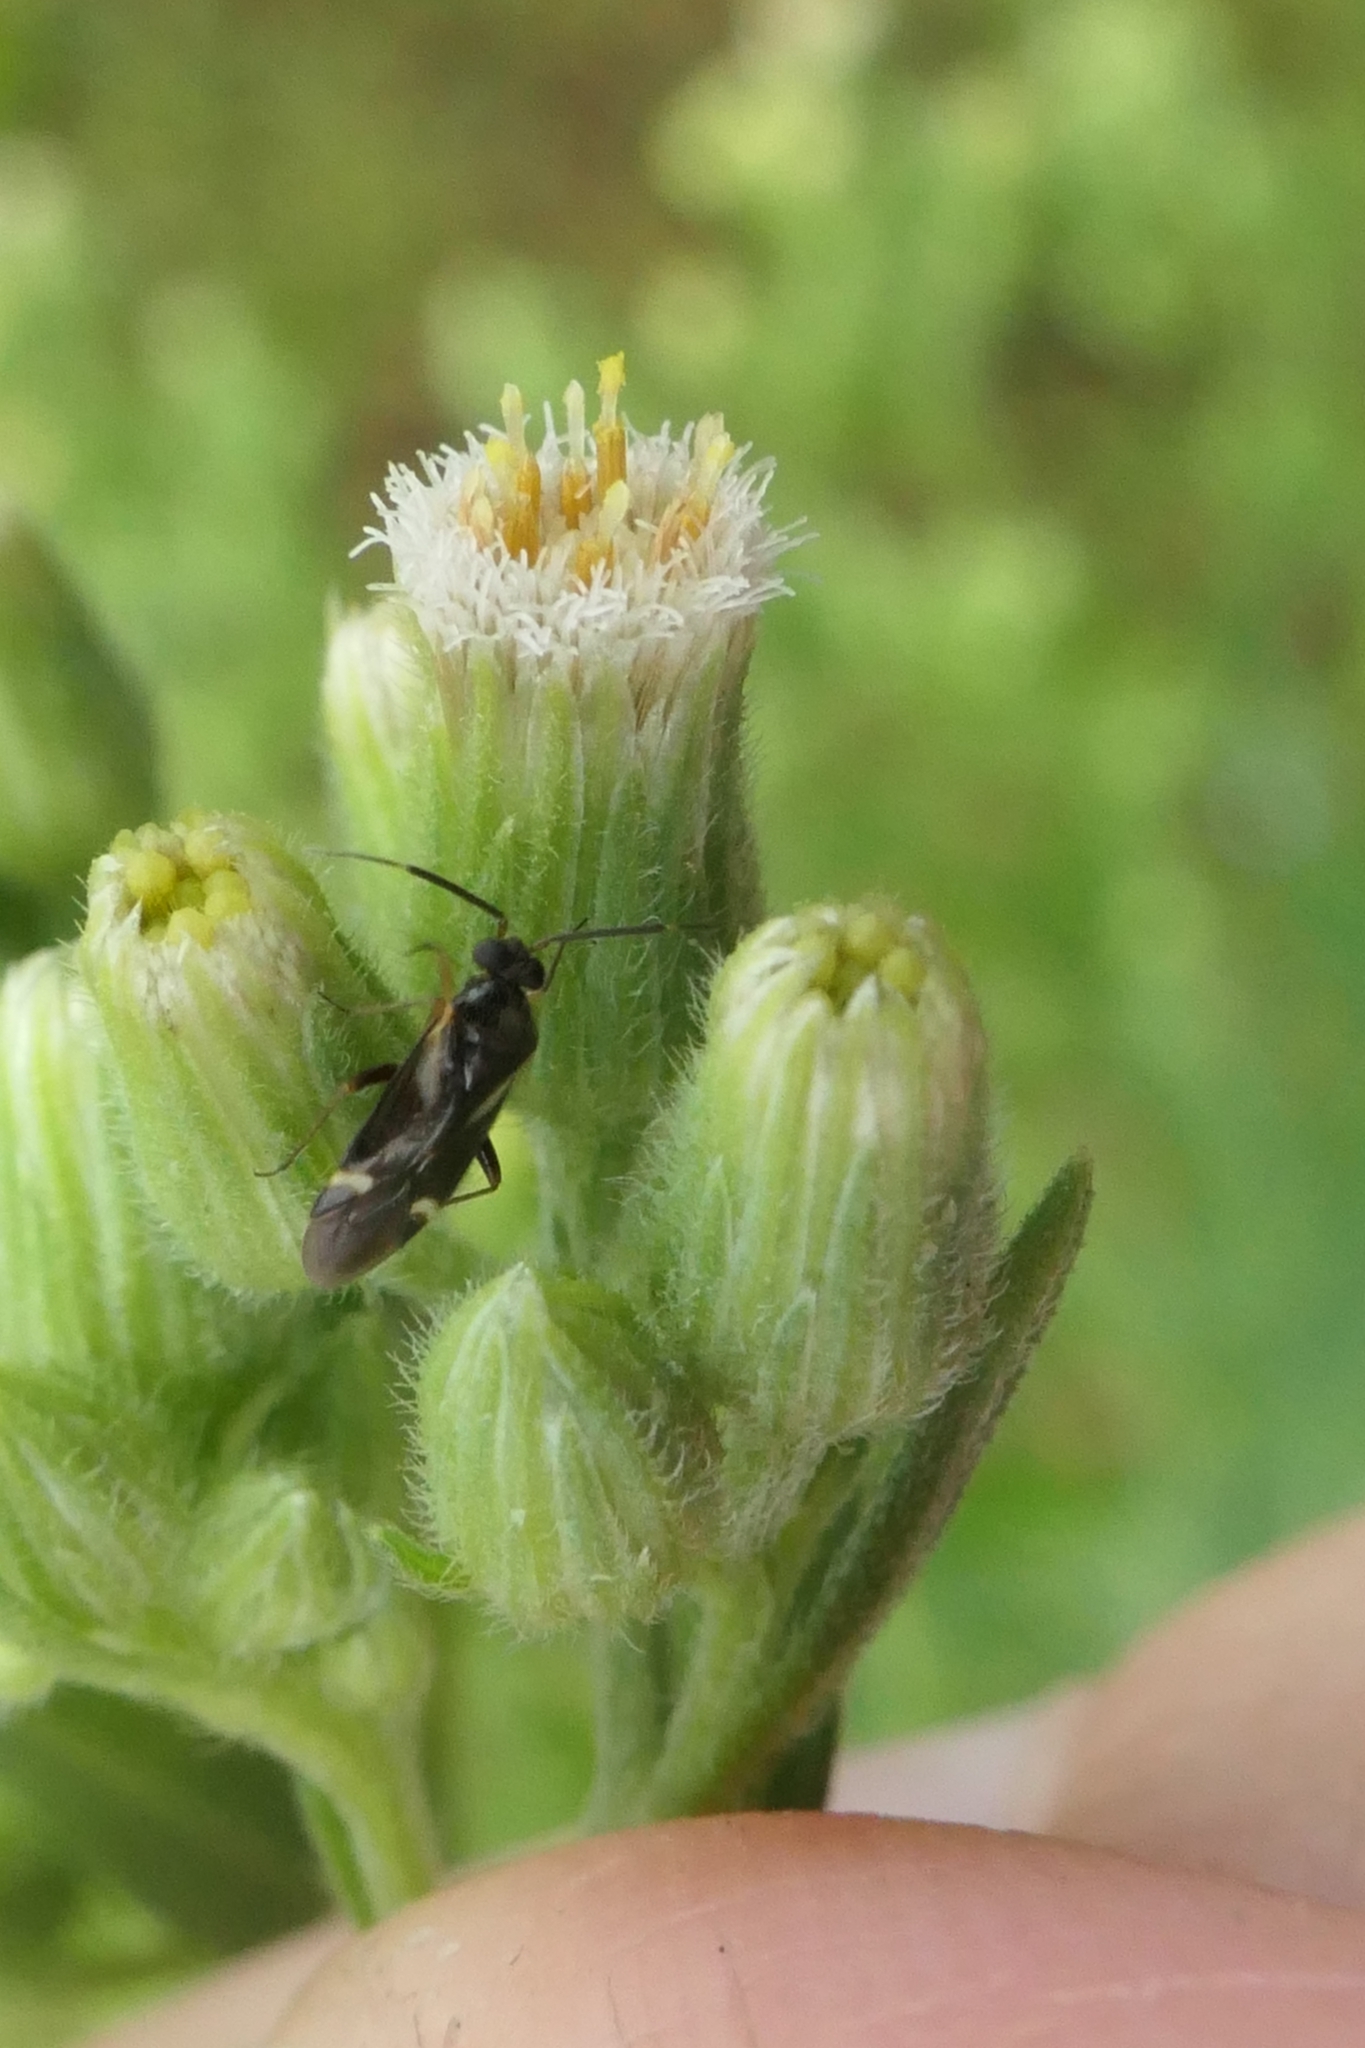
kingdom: Animalia
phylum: Arthropoda
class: Insecta
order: Hemiptera
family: Miridae
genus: Ausejanus
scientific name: Ausejanus albisignatus
